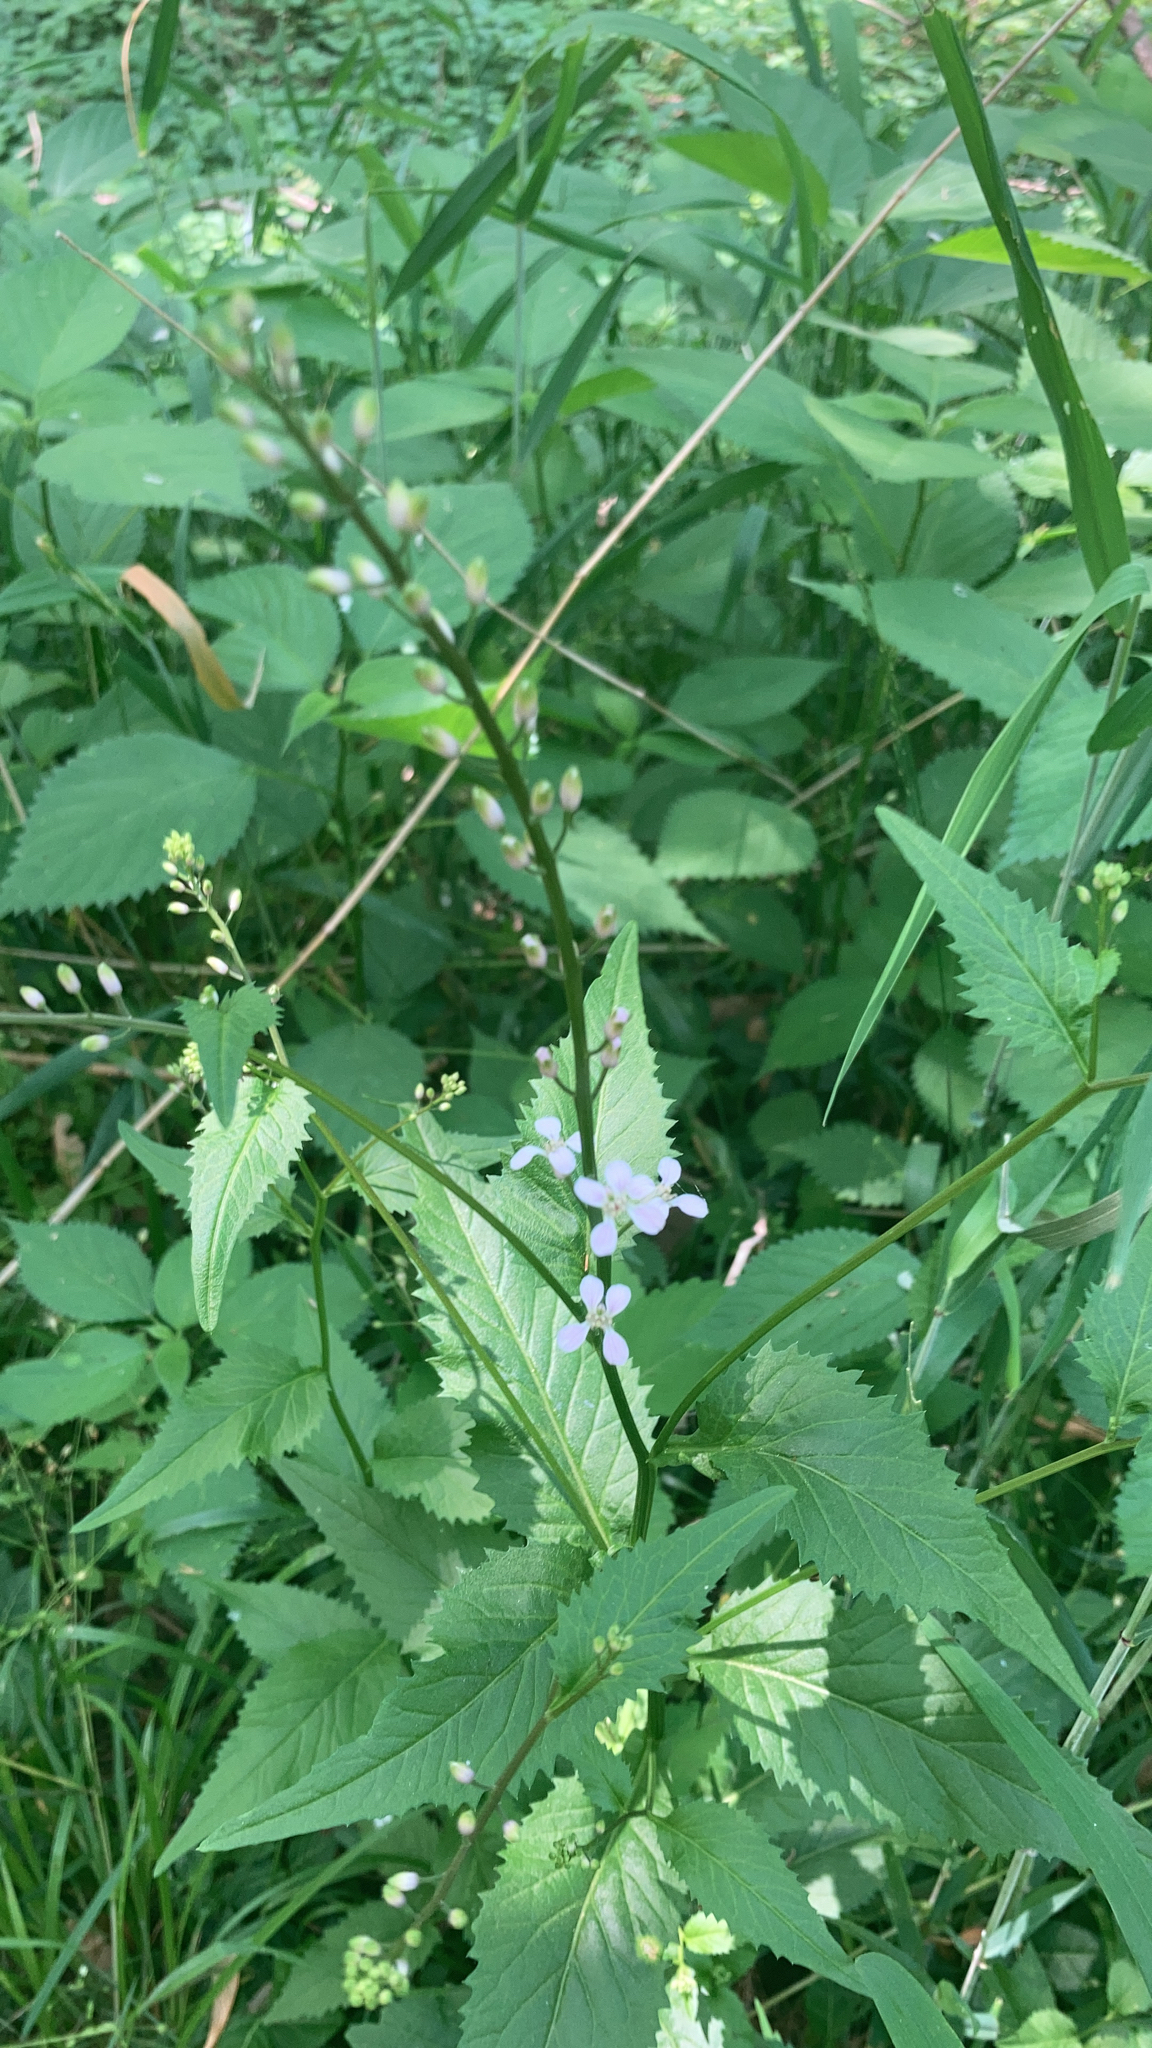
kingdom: Plantae
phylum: Tracheophyta
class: Magnoliopsida
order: Brassicales
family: Brassicaceae
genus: Iodanthus
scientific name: Iodanthus pinnatifidus
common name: Violet rocket
